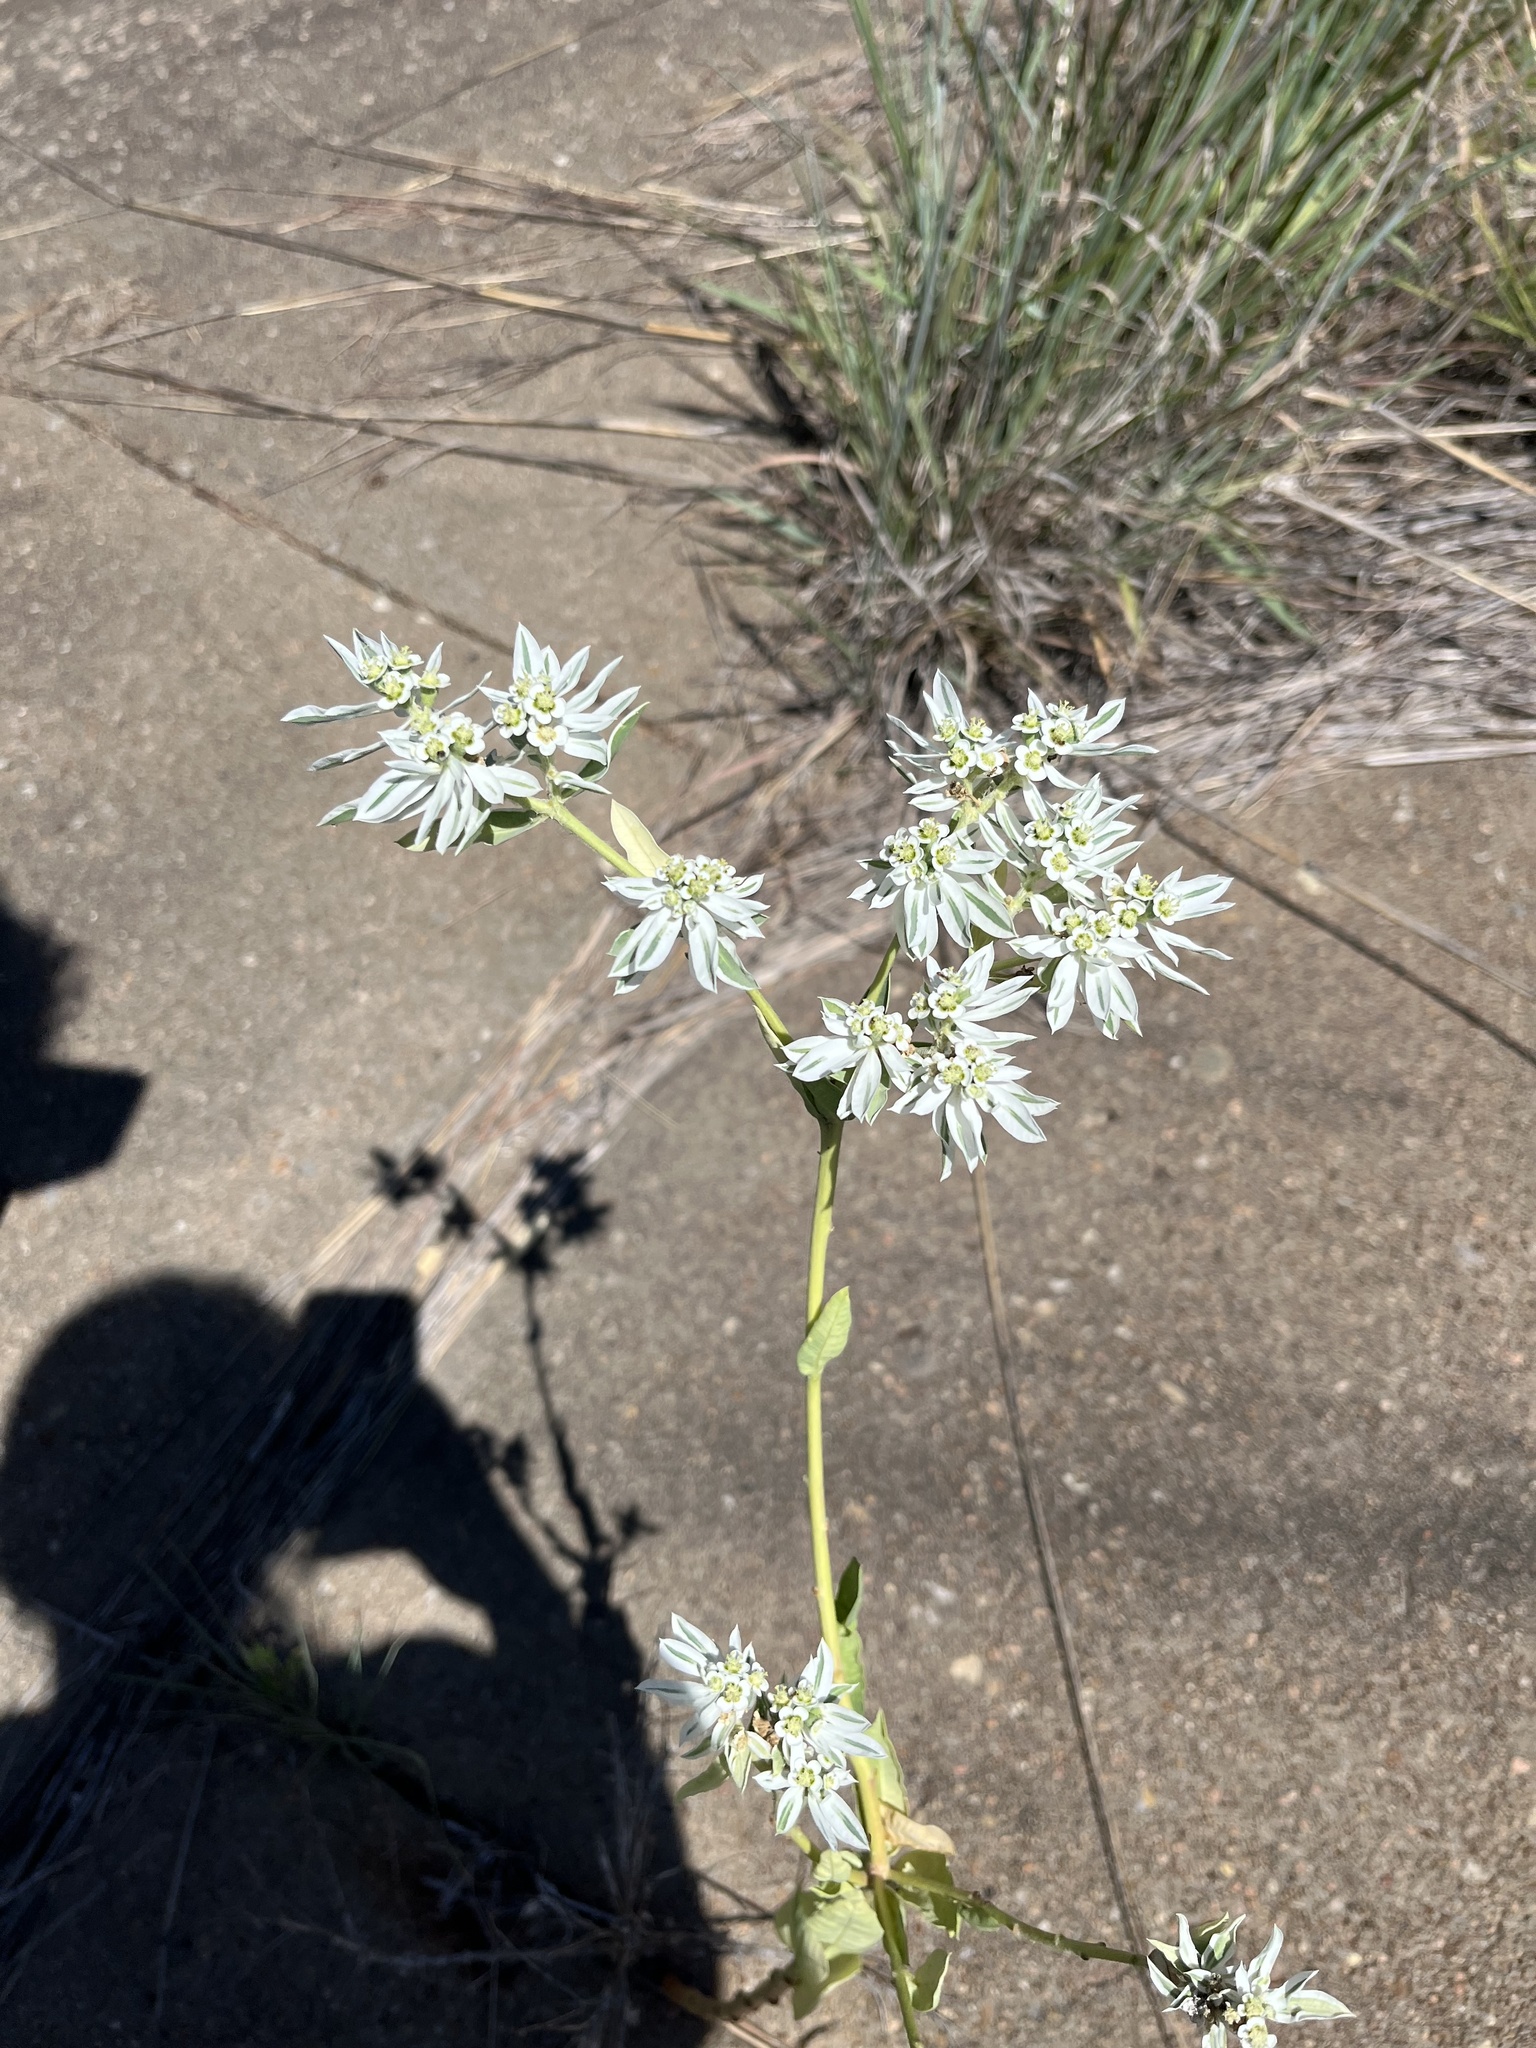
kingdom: Plantae
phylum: Tracheophyta
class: Magnoliopsida
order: Malpighiales
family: Euphorbiaceae
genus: Euphorbia
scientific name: Euphorbia marginata
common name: Ghostweed
